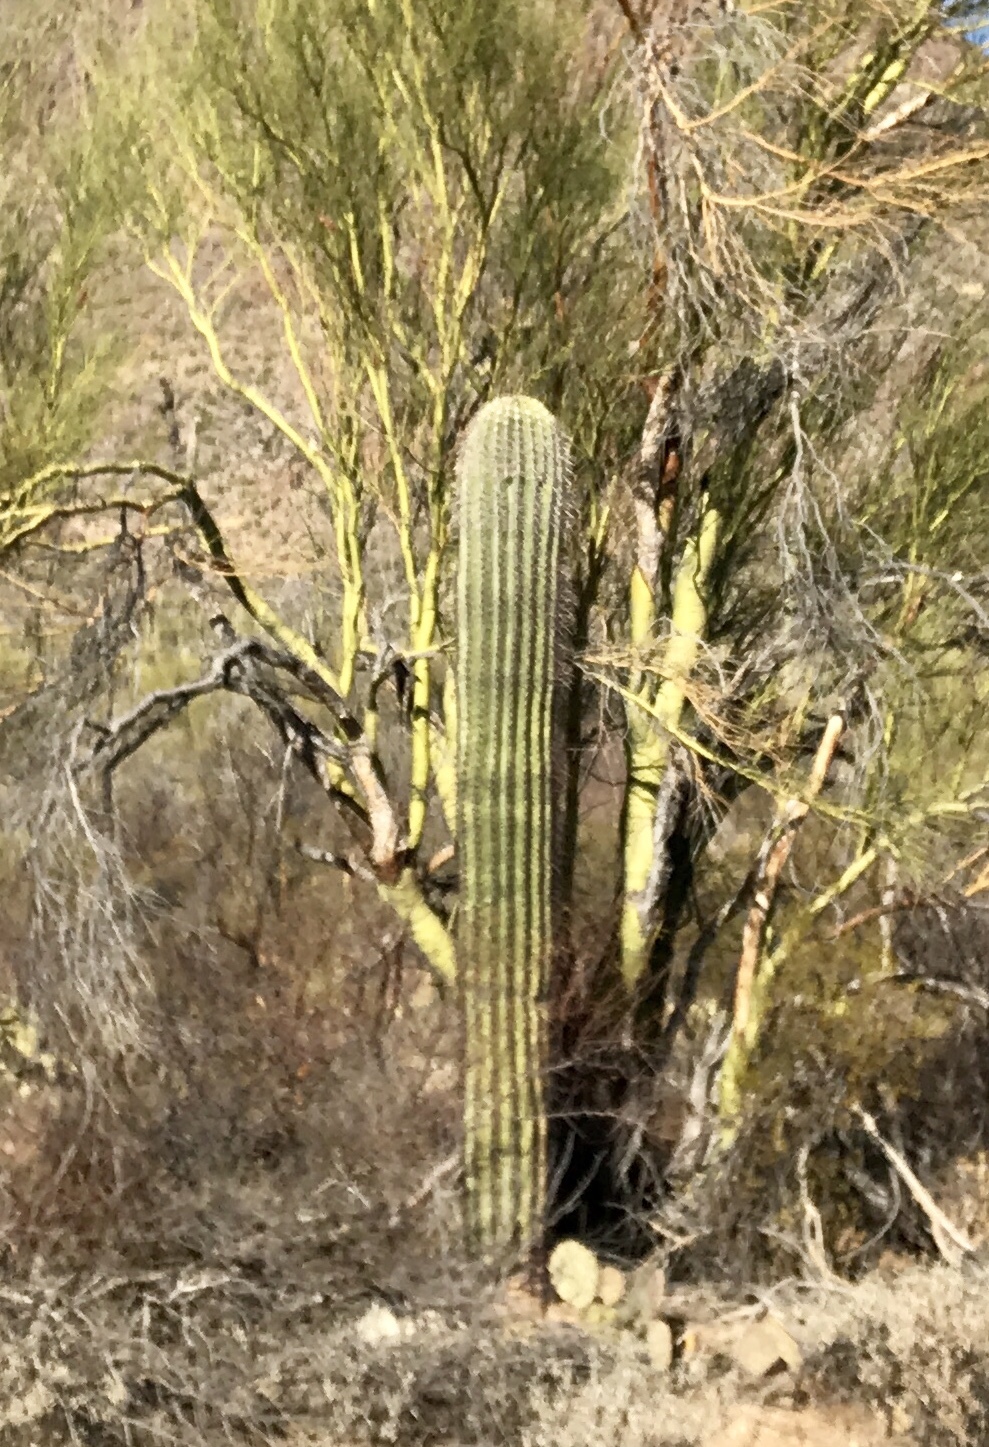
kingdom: Plantae
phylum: Tracheophyta
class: Magnoliopsida
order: Caryophyllales
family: Cactaceae
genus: Carnegiea
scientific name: Carnegiea gigantea
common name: Saguaro
